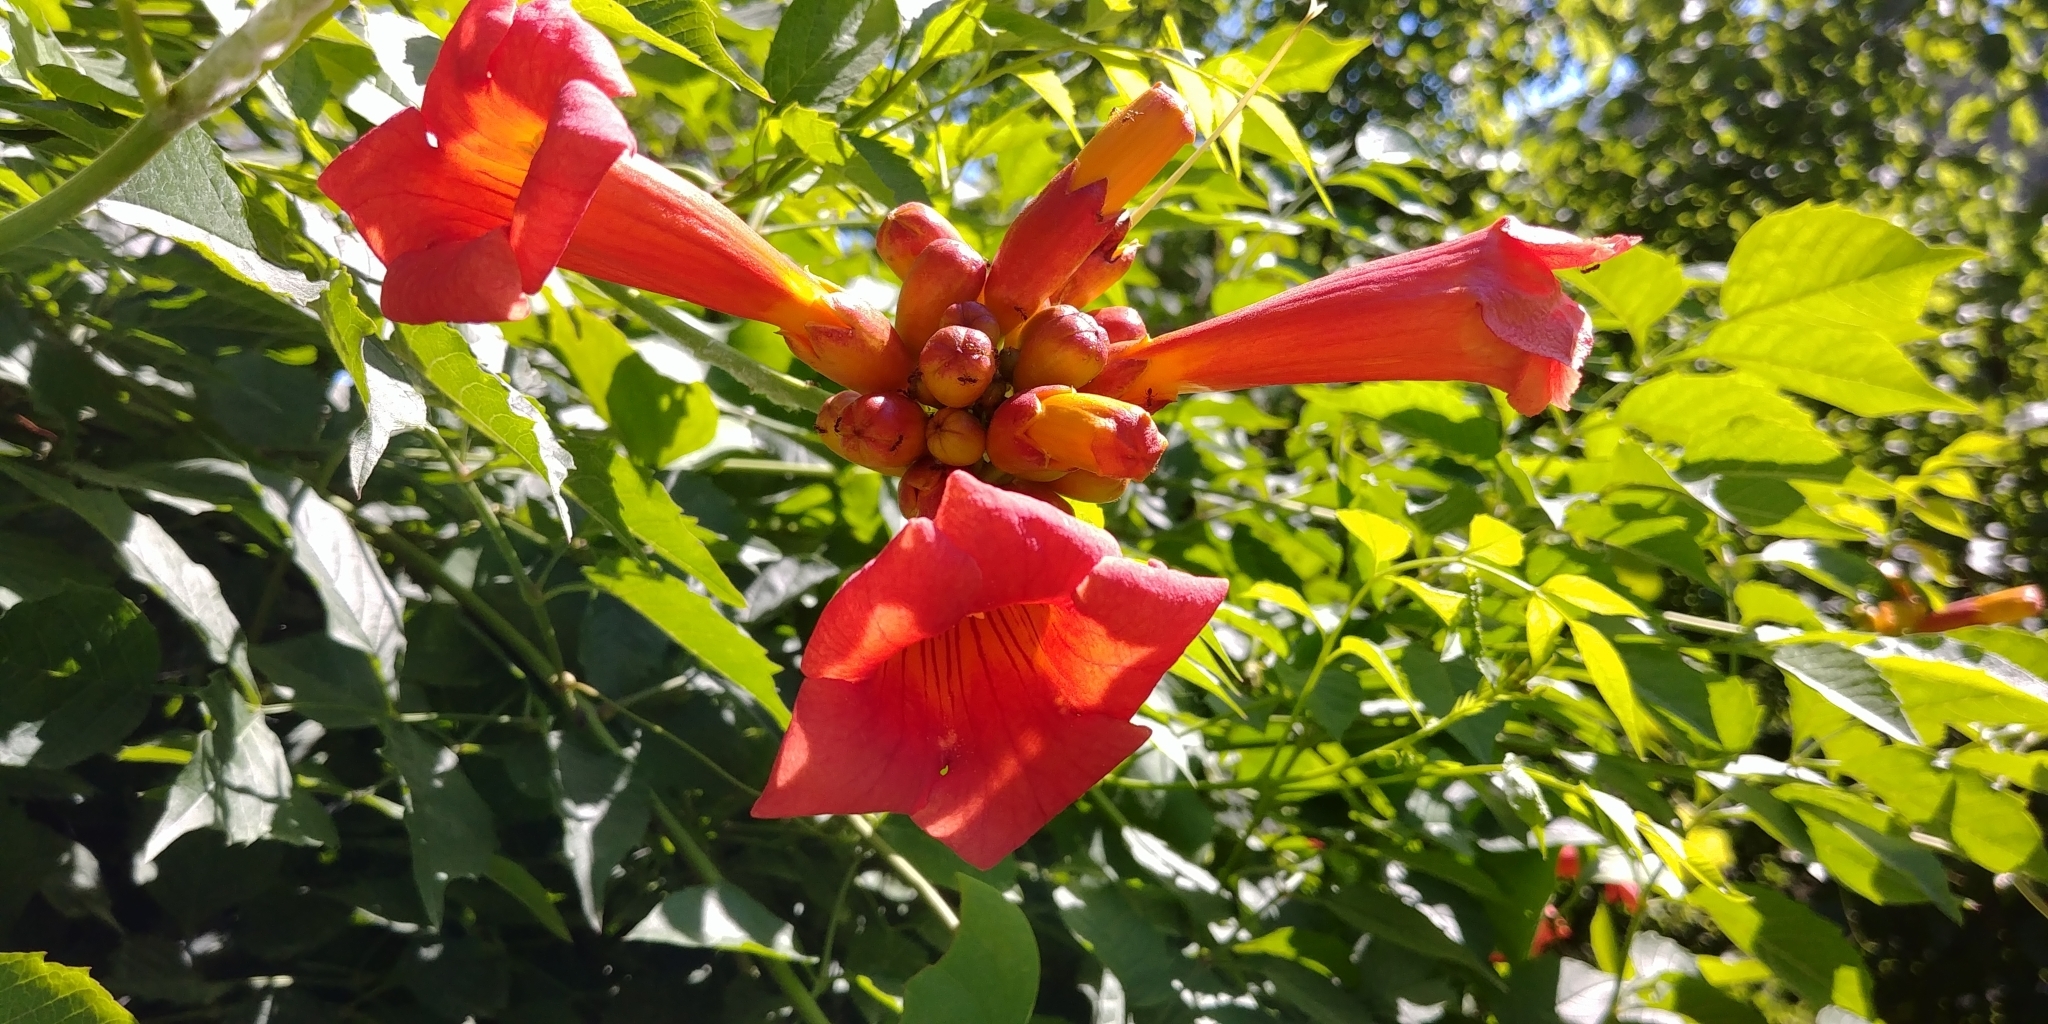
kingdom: Plantae
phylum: Tracheophyta
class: Magnoliopsida
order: Lamiales
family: Bignoniaceae
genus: Campsis
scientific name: Campsis radicans
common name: Trumpet-creeper
